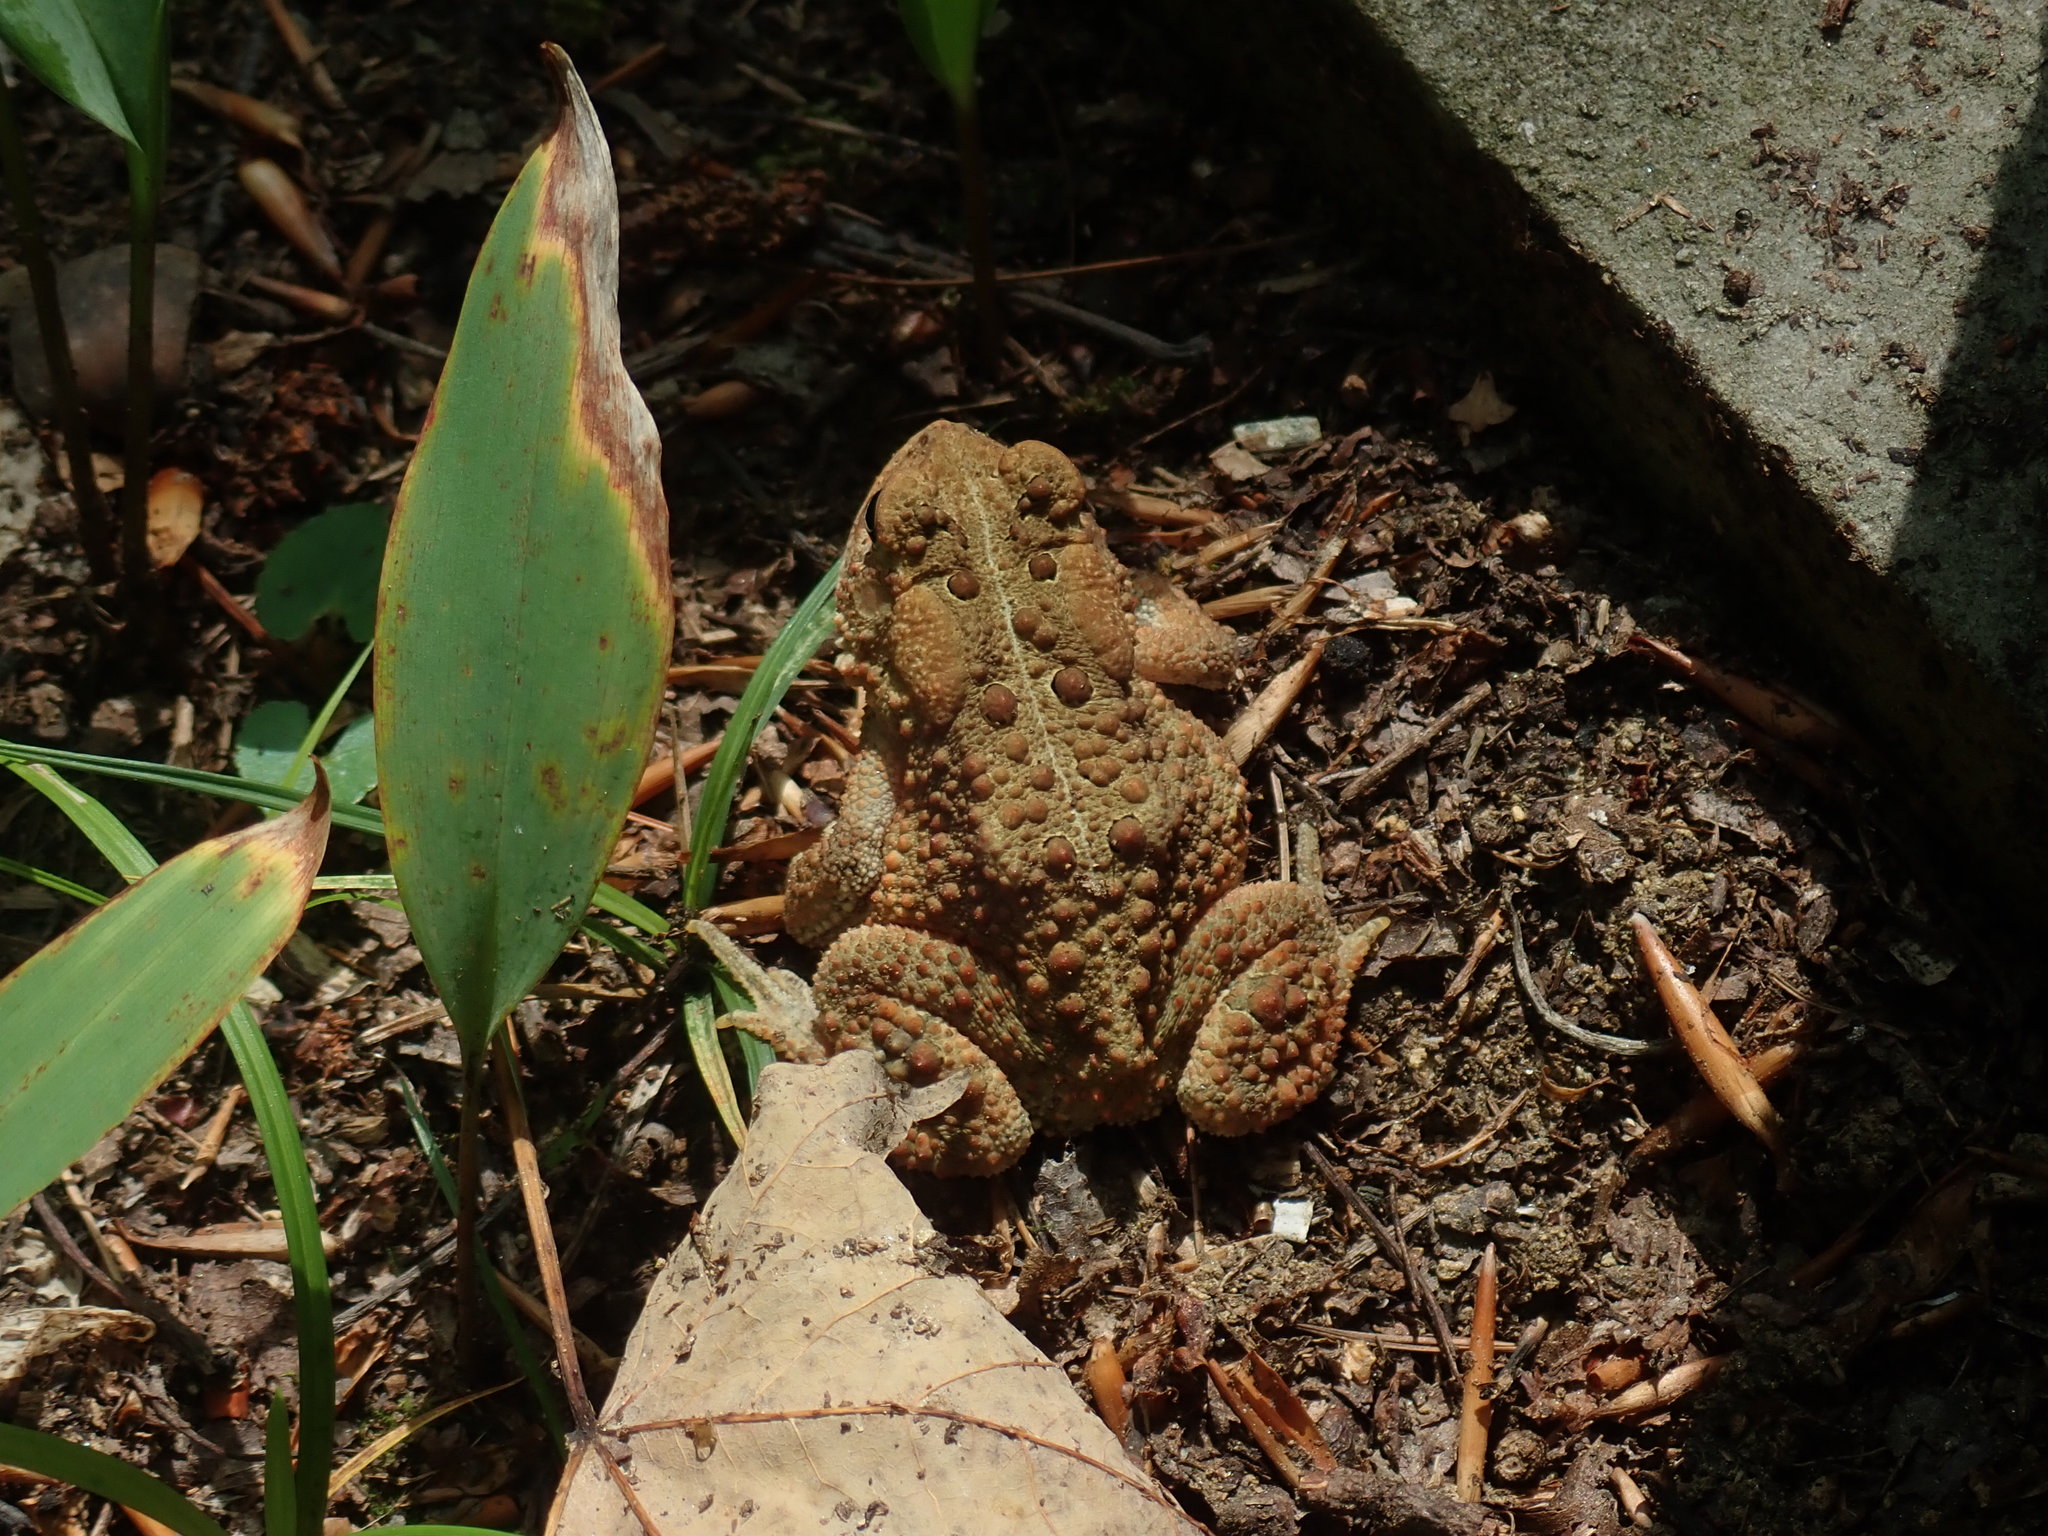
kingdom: Animalia
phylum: Chordata
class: Amphibia
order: Anura
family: Bufonidae
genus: Anaxyrus
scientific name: Anaxyrus americanus
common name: American toad
